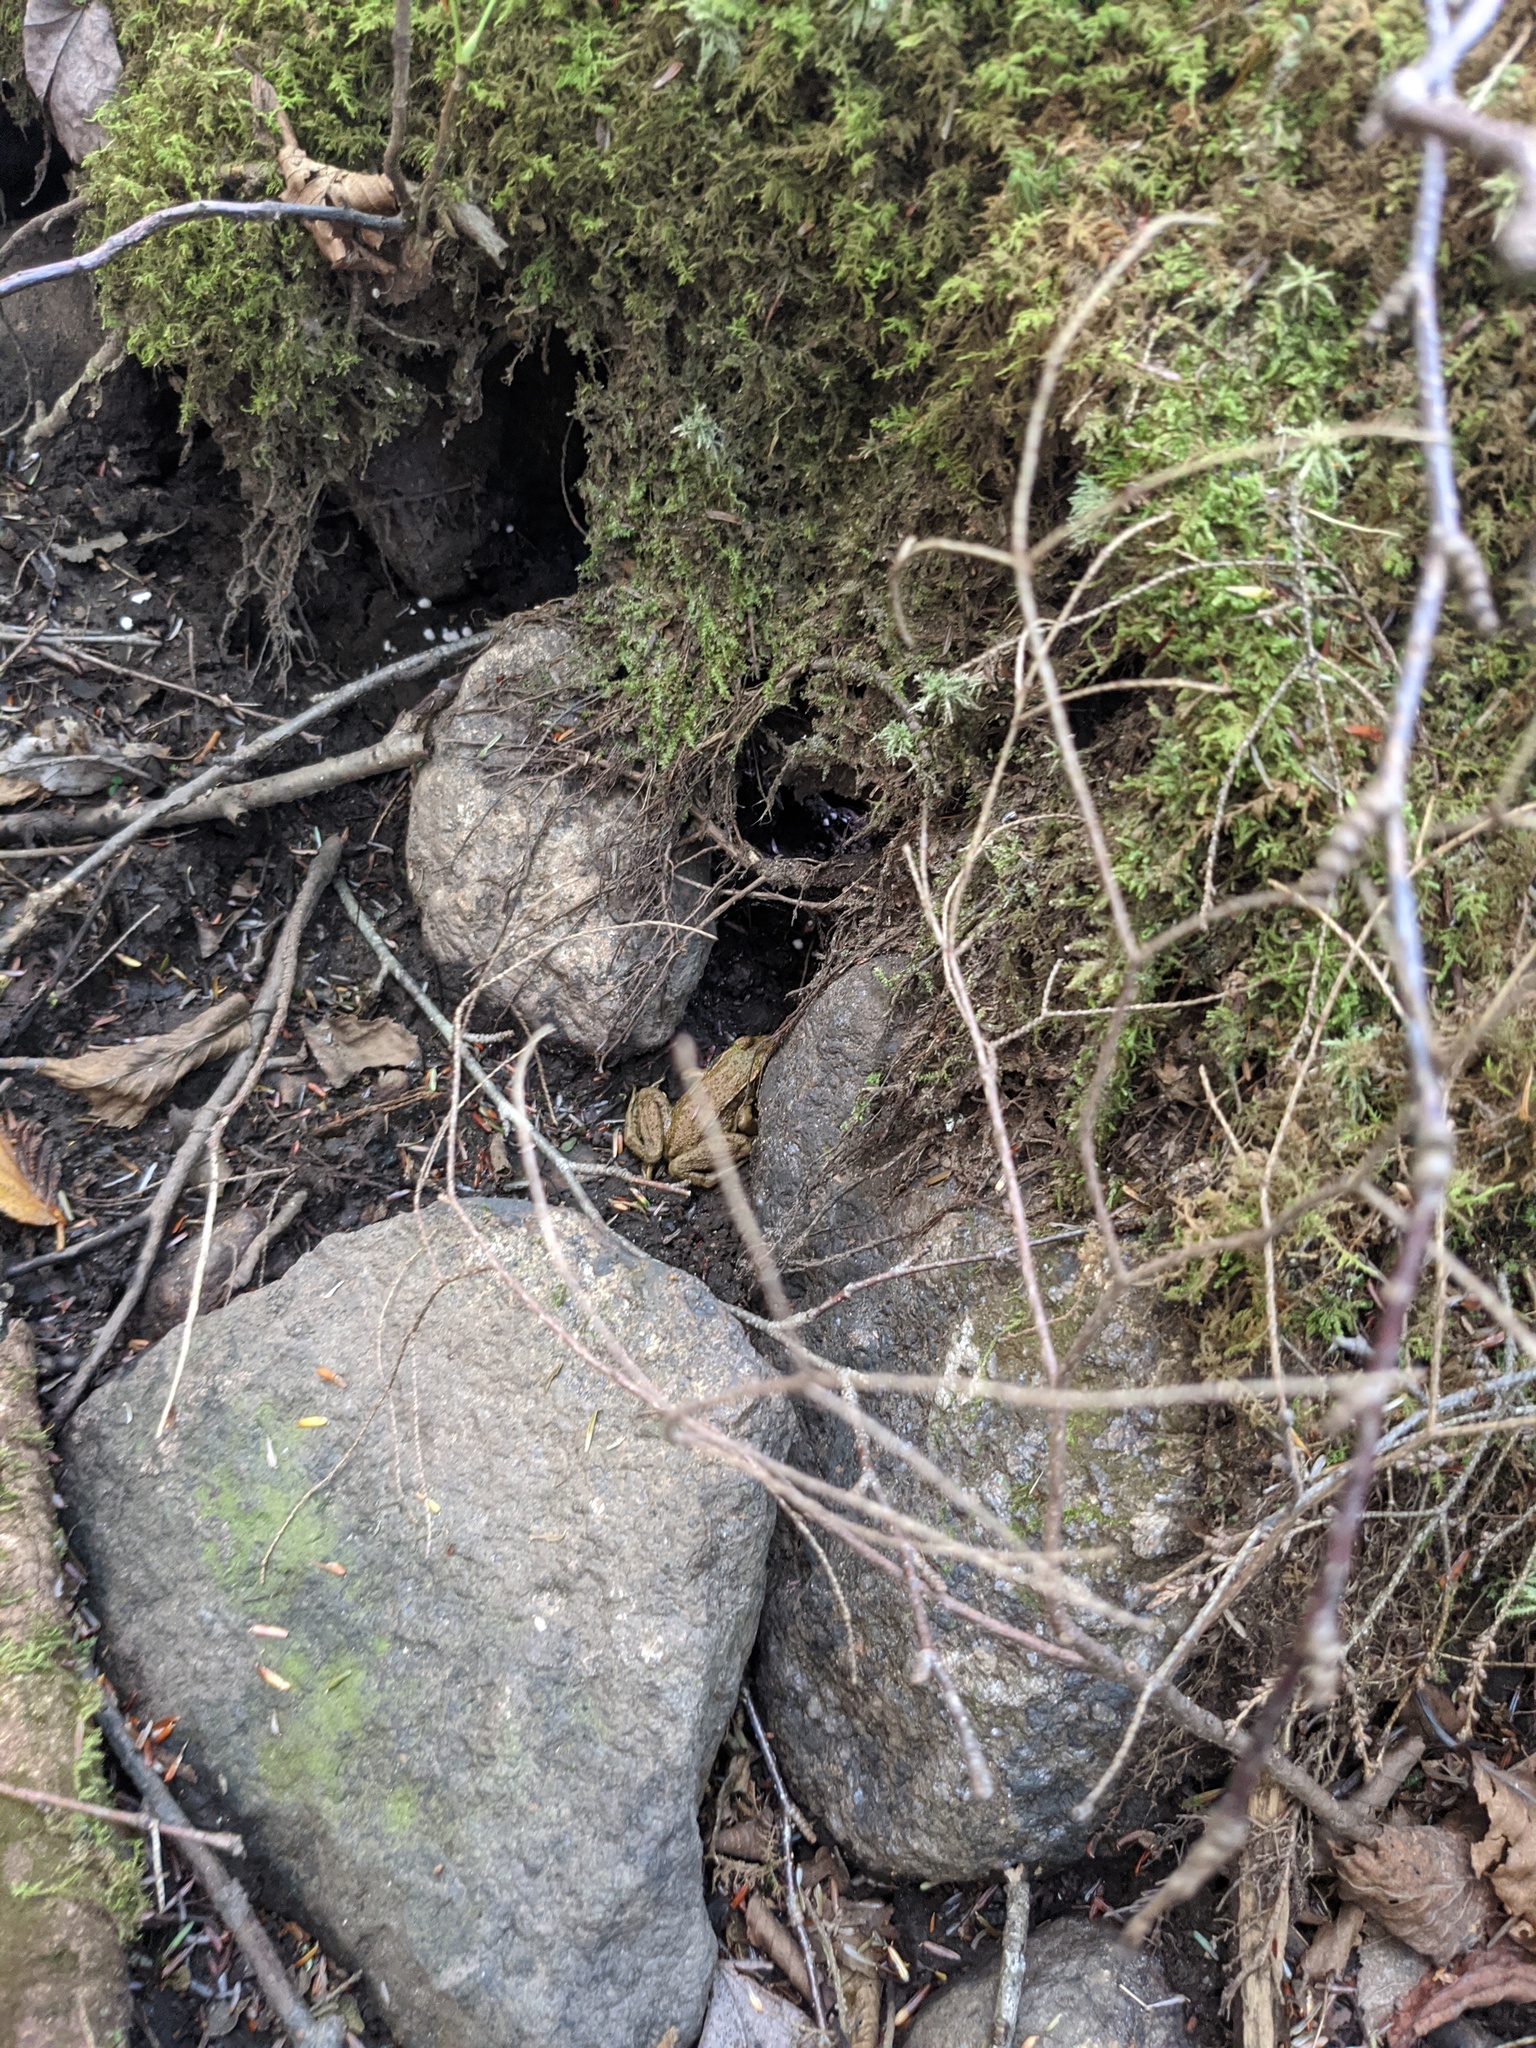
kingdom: Animalia
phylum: Chordata
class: Amphibia
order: Anura
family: Ranidae
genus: Lithobates
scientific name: Lithobates clamitans
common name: Green frog
